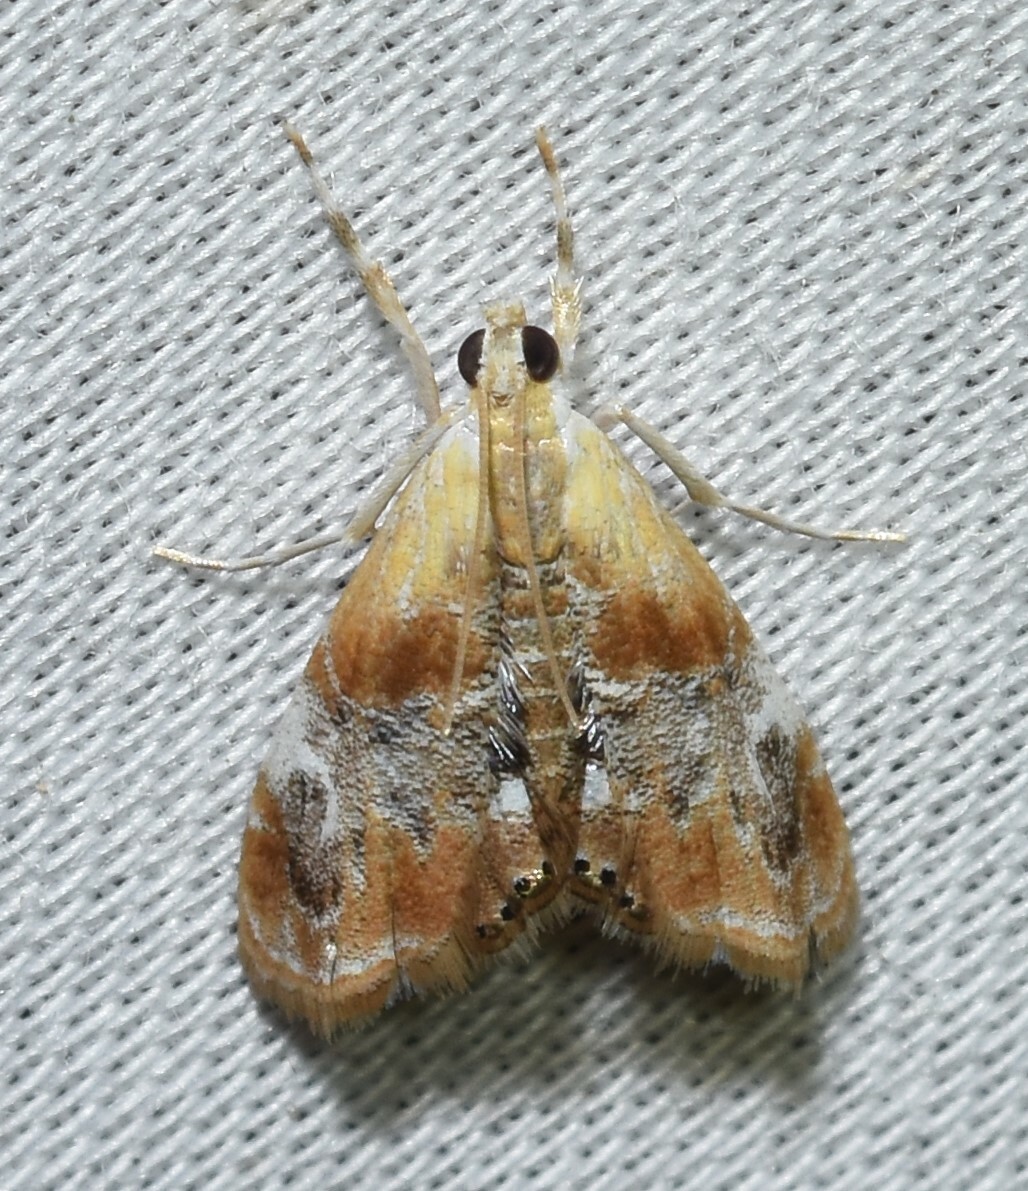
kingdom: Animalia
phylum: Arthropoda
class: Insecta
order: Lepidoptera
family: Crambidae
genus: Dicymolomia
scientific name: Dicymolomia julianalis
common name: Julia's dicymolomia moth
